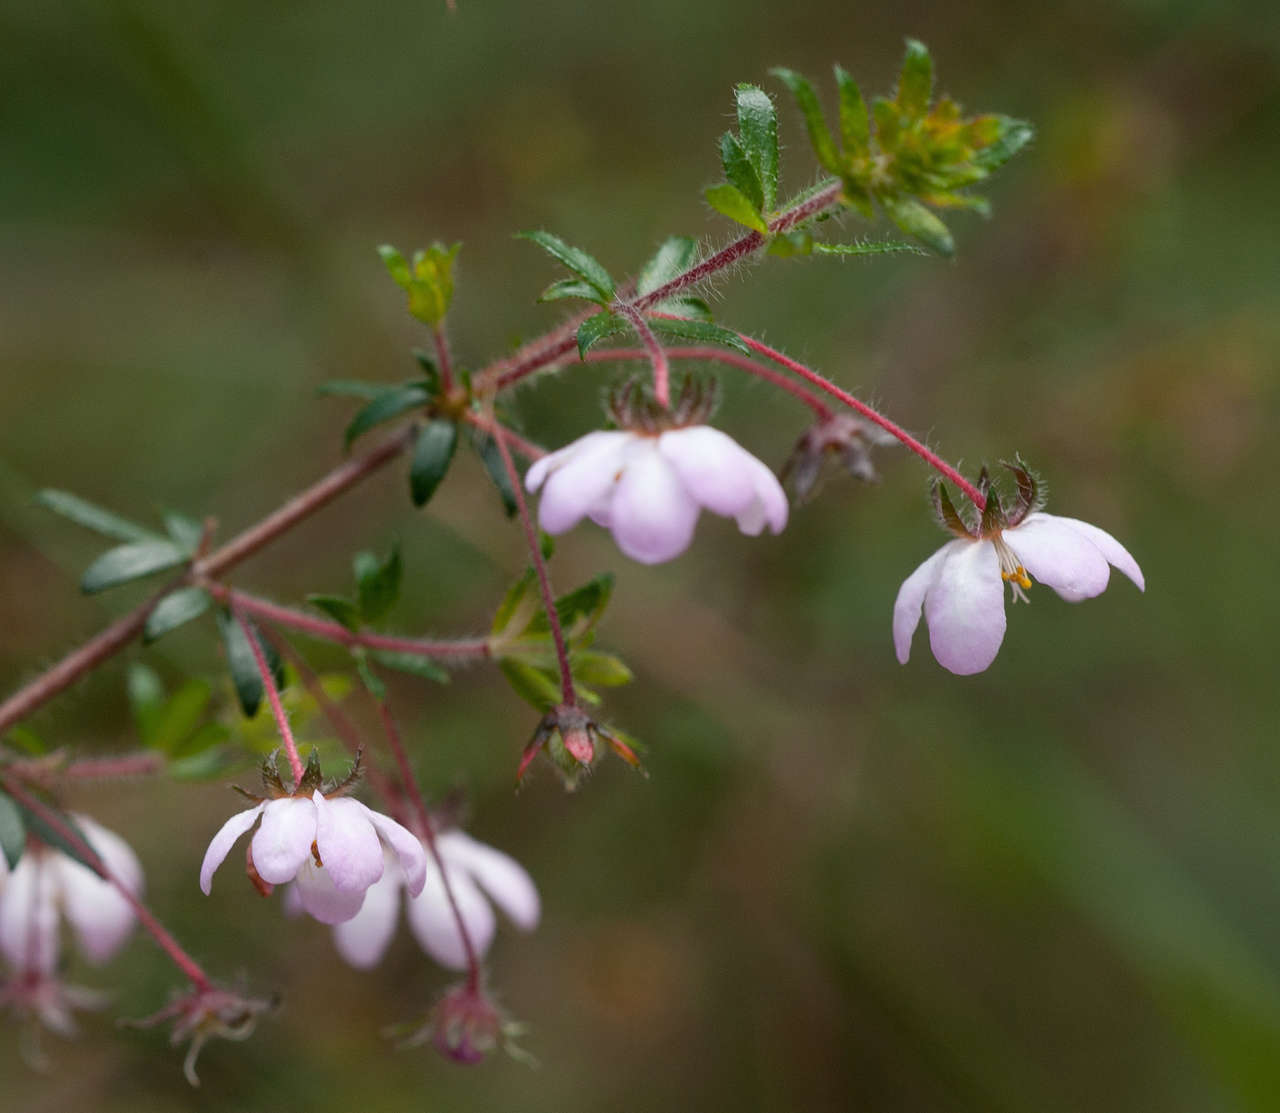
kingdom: Plantae
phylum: Tracheophyta
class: Magnoliopsida
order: Oxalidales
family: Cunoniaceae
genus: Bauera
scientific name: Bauera rubioides
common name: River-rose
